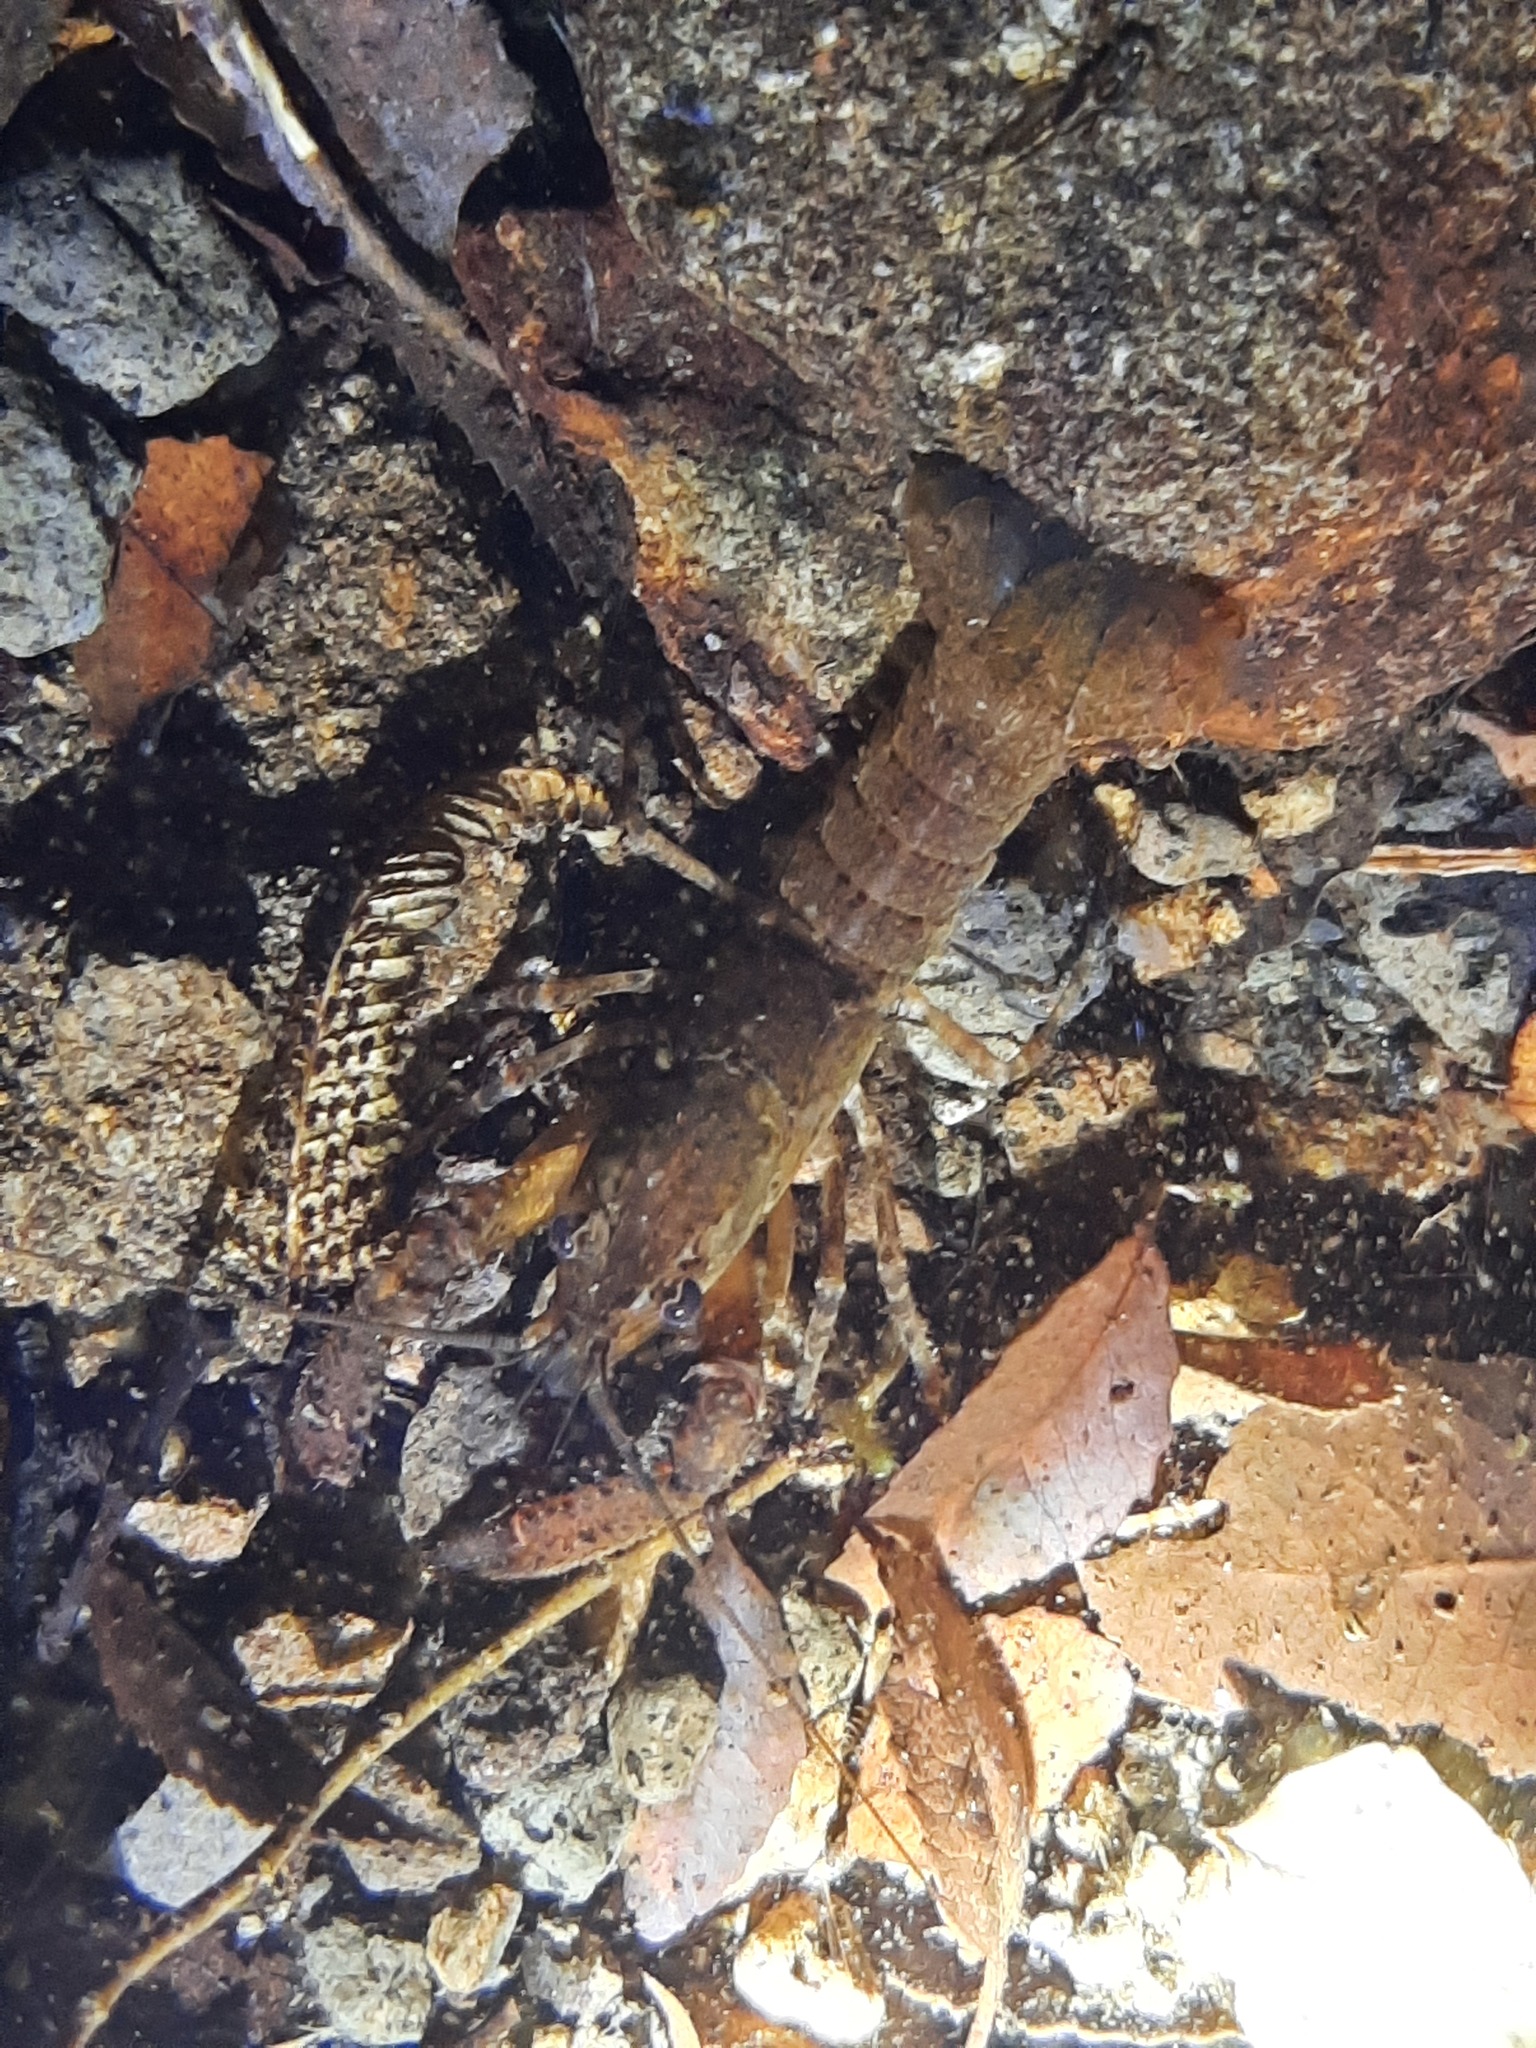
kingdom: Animalia
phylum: Arthropoda
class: Malacostraca
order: Decapoda
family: Parastacidae
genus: Paranephrops
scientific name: Paranephrops planifrons
